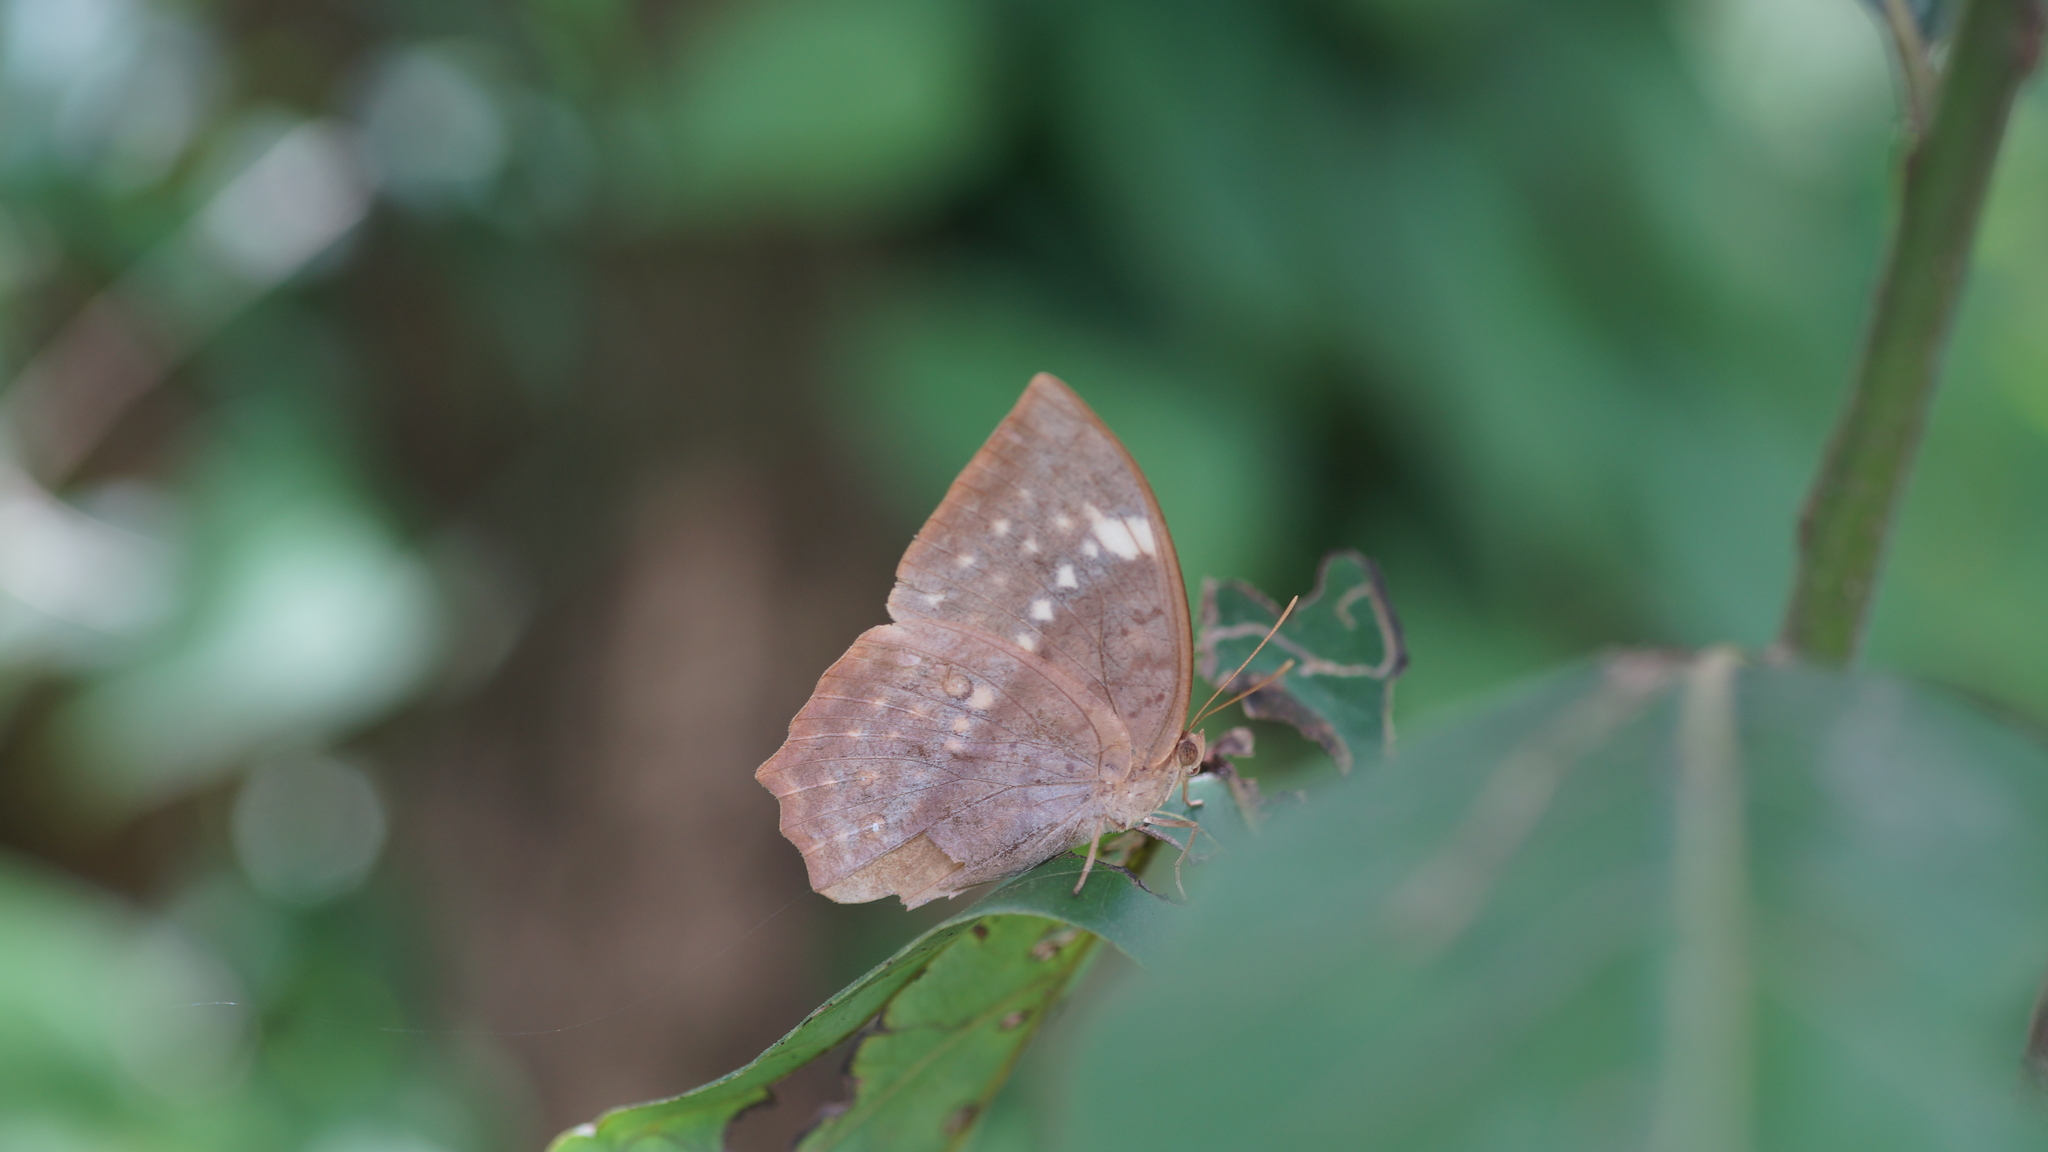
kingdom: Animalia
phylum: Arthropoda
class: Insecta
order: Lepidoptera
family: Nymphalidae
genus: Discophora
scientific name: Discophora sondaica
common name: Common duffer
